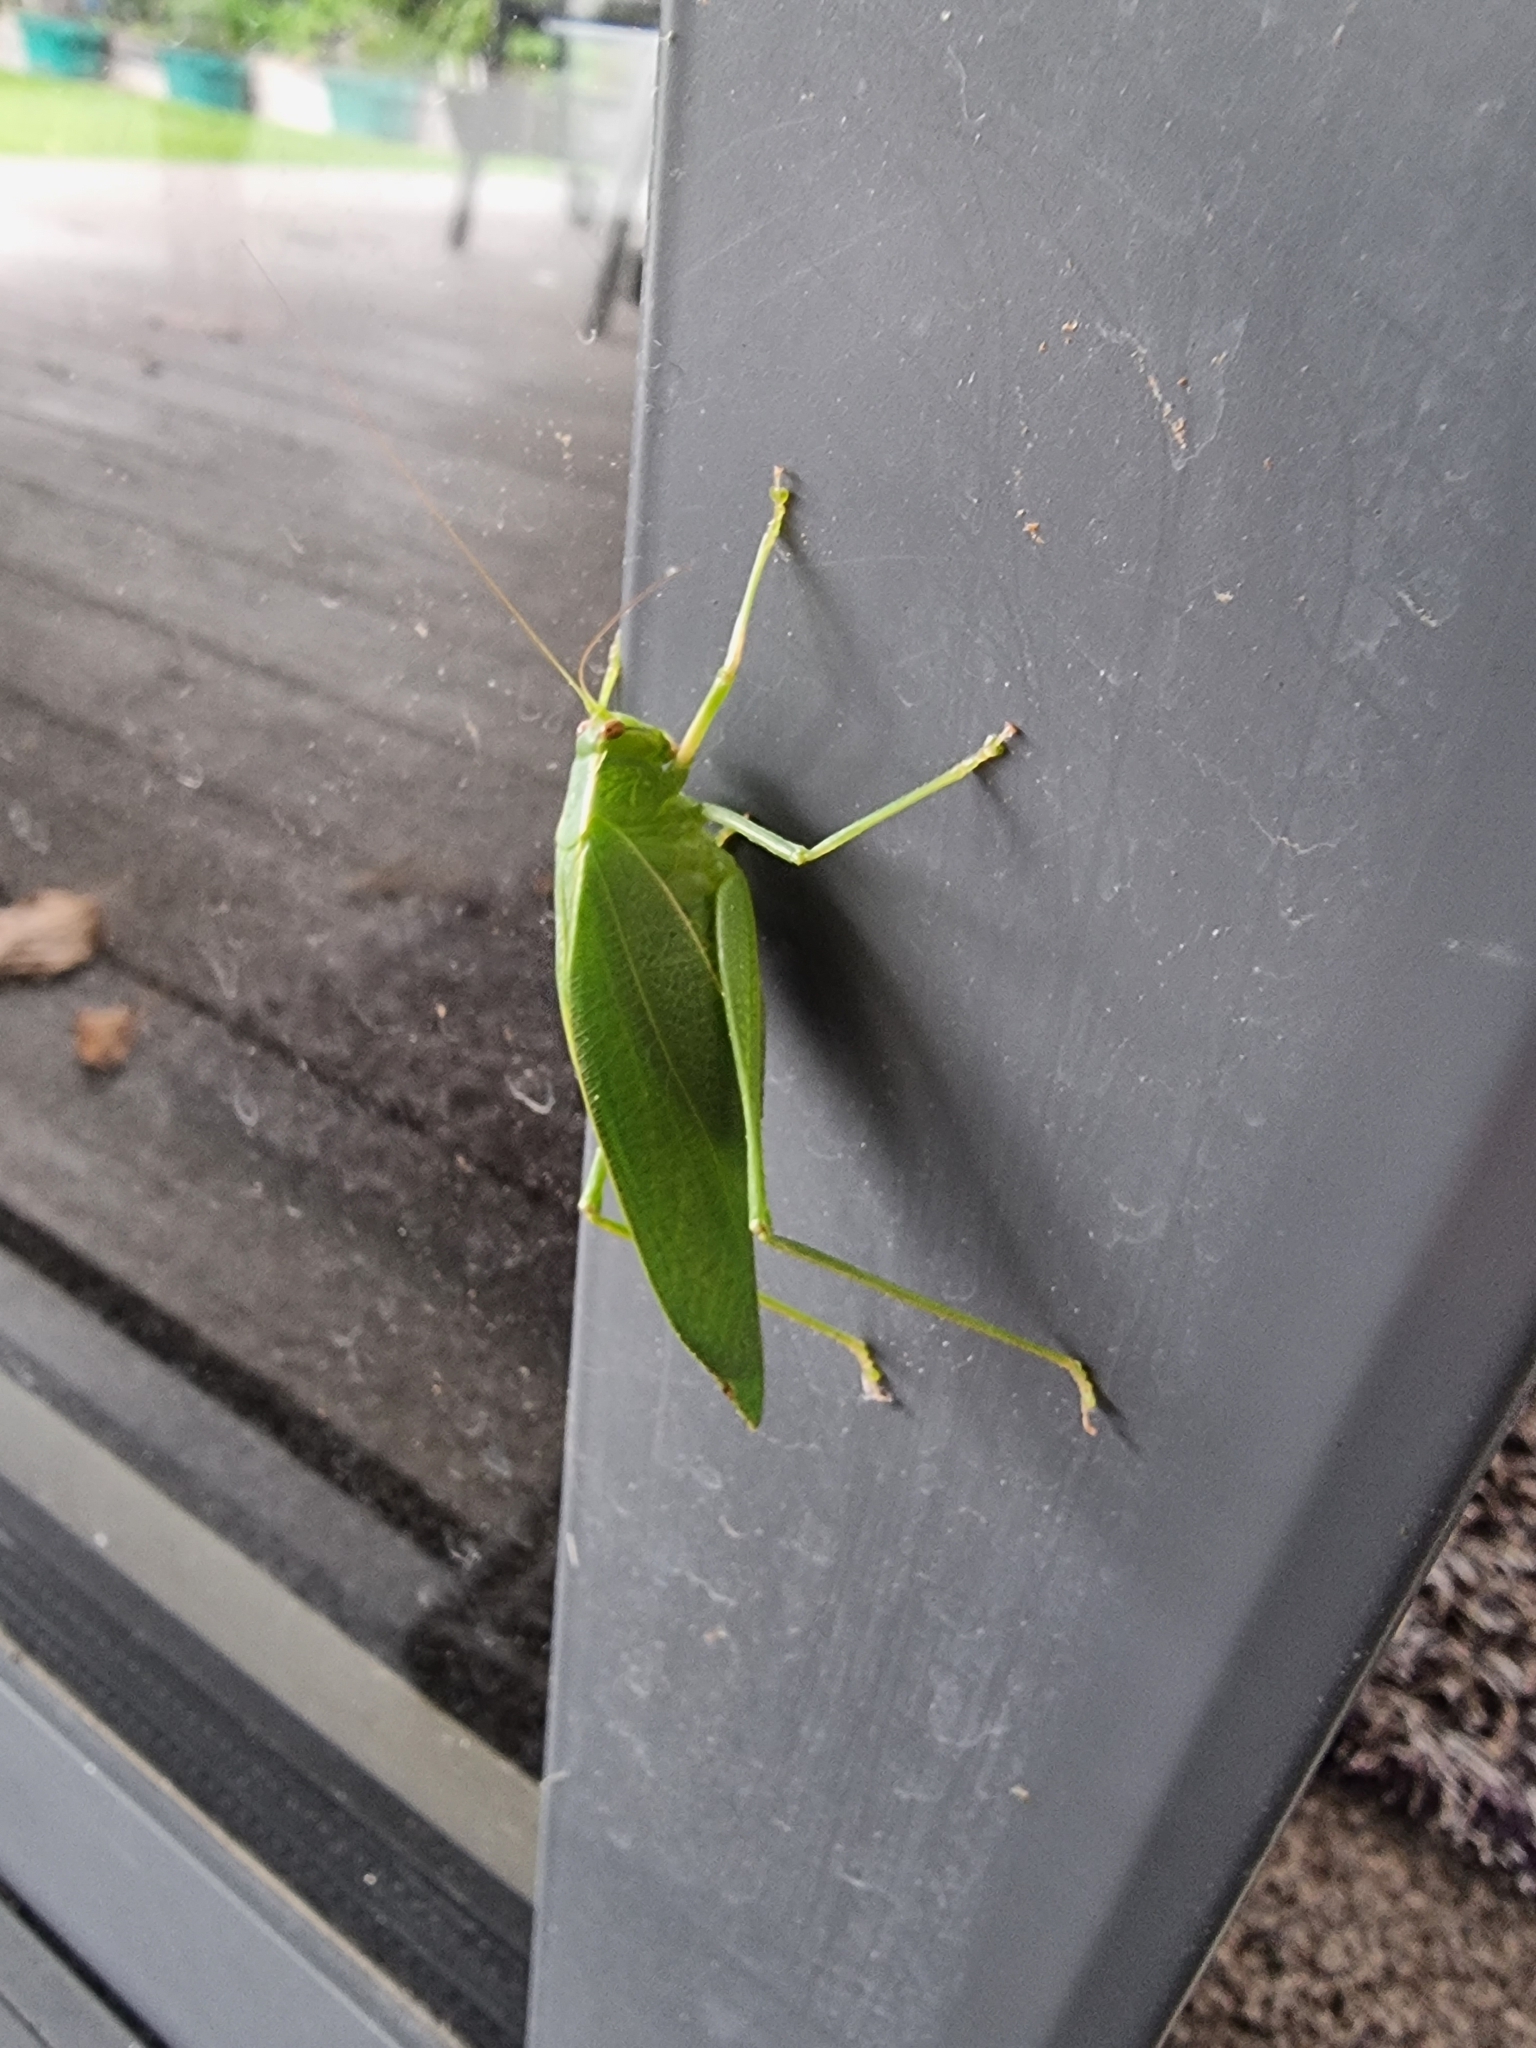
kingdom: Animalia
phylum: Arthropoda
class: Insecta
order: Orthoptera
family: Tettigoniidae
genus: Caedicia
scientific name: Caedicia simplex
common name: Common garden katydid
